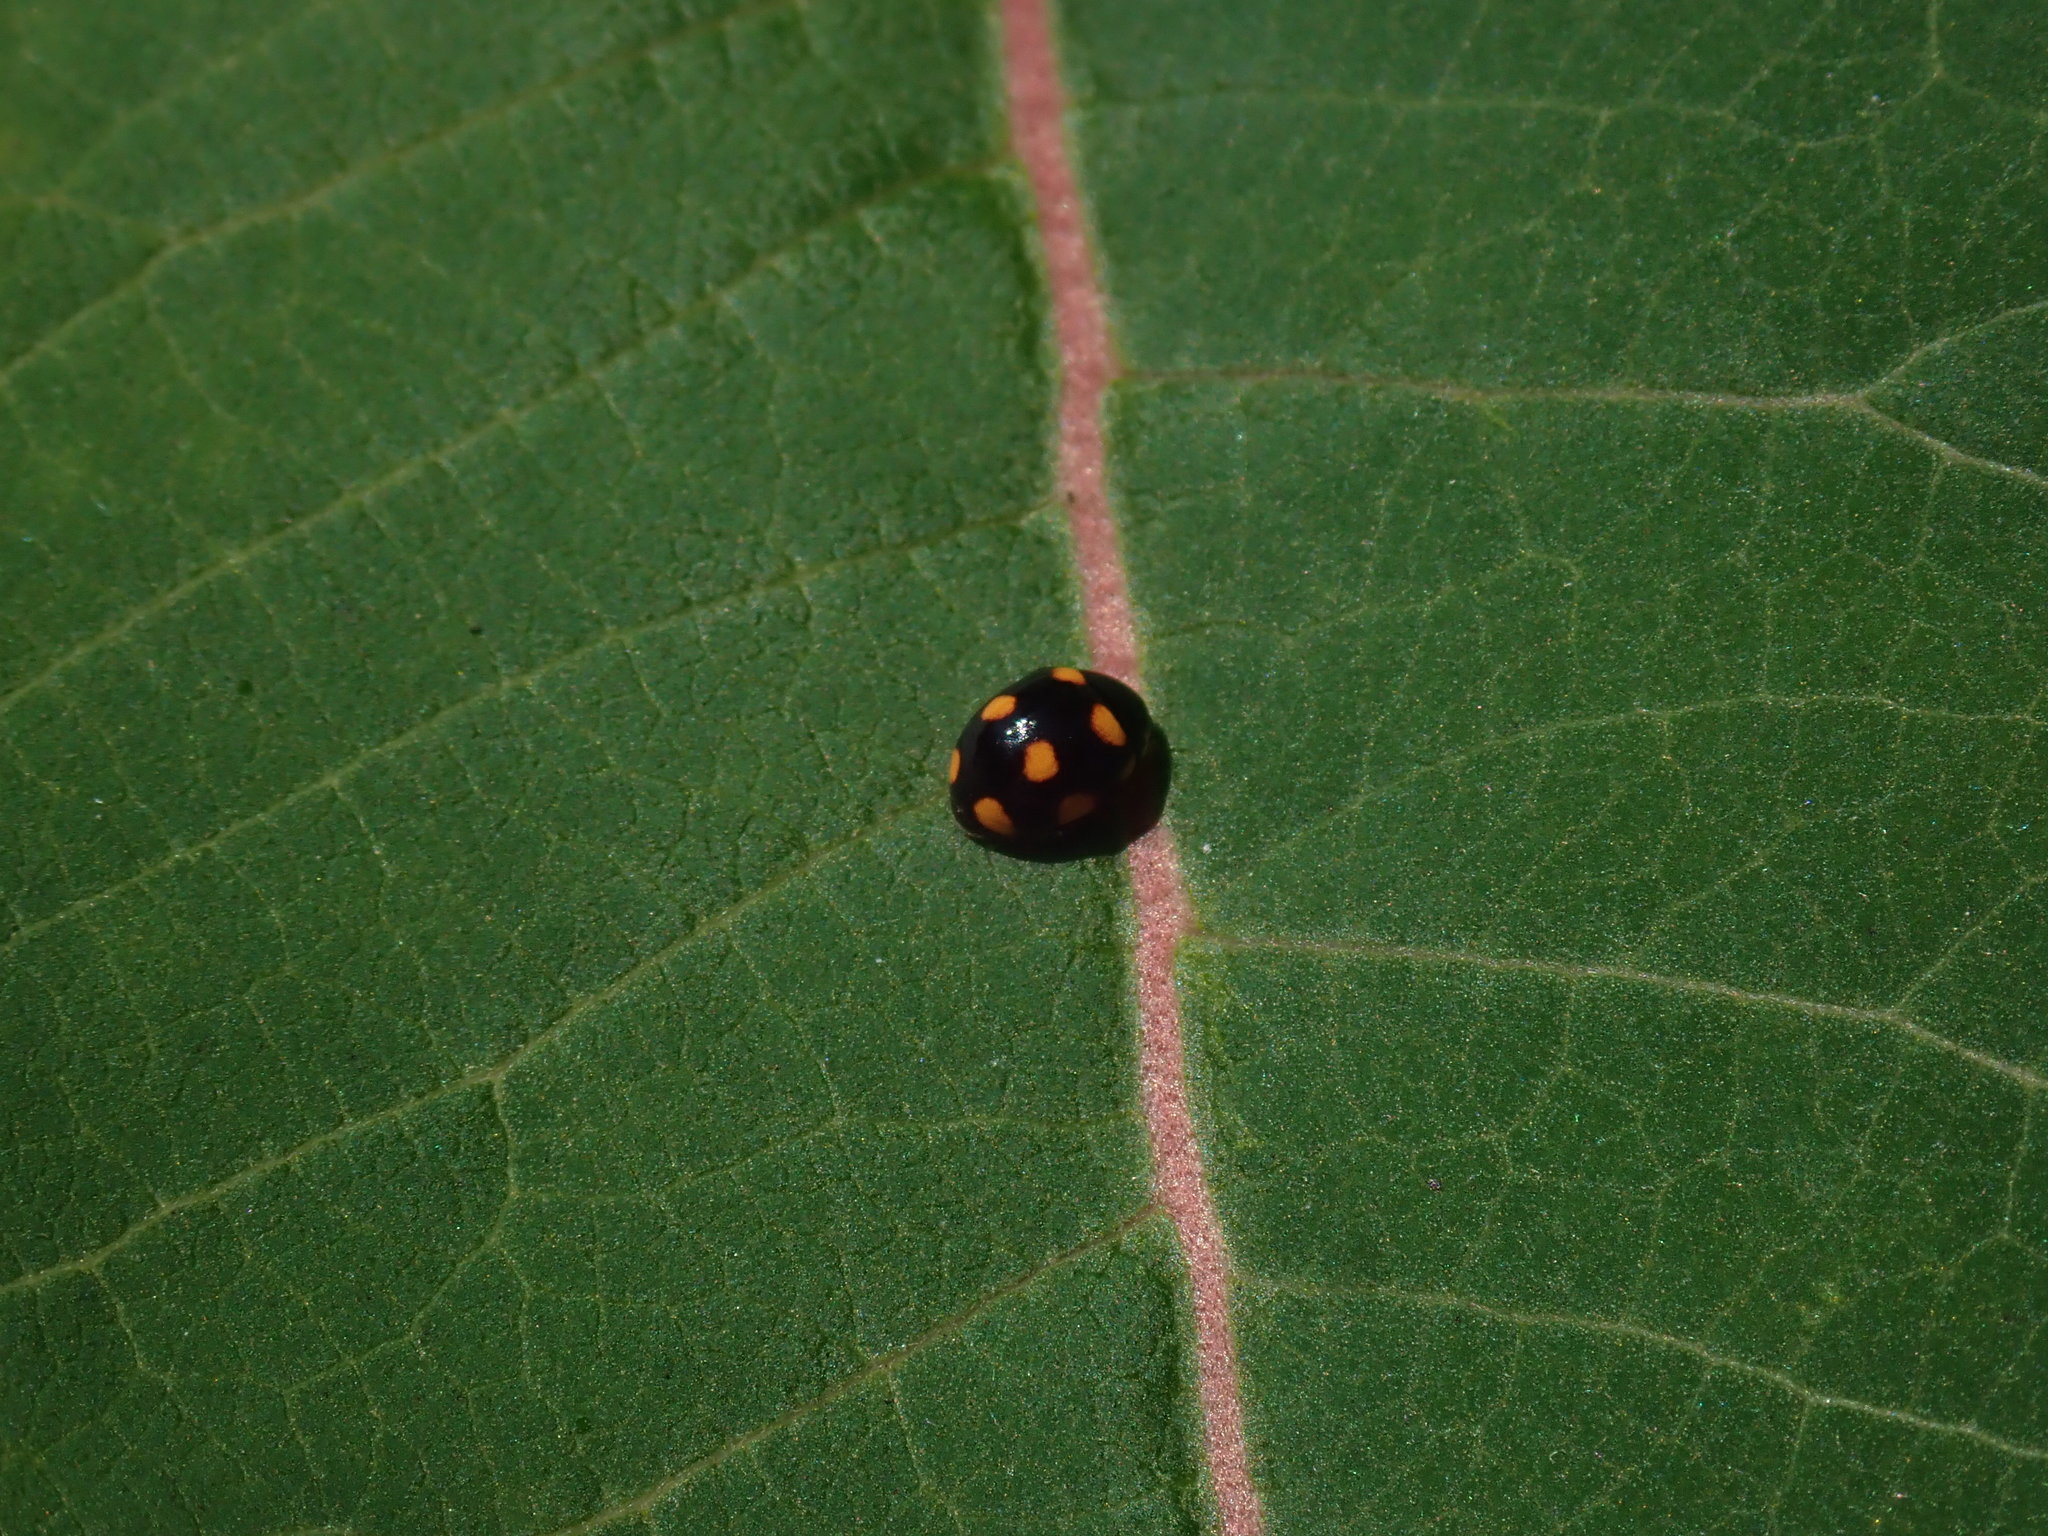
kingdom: Animalia
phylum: Arthropoda
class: Insecta
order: Coleoptera
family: Coccinellidae
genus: Brachiacantha
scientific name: Brachiacantha ursina
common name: Ursine spurleg lady beetle
